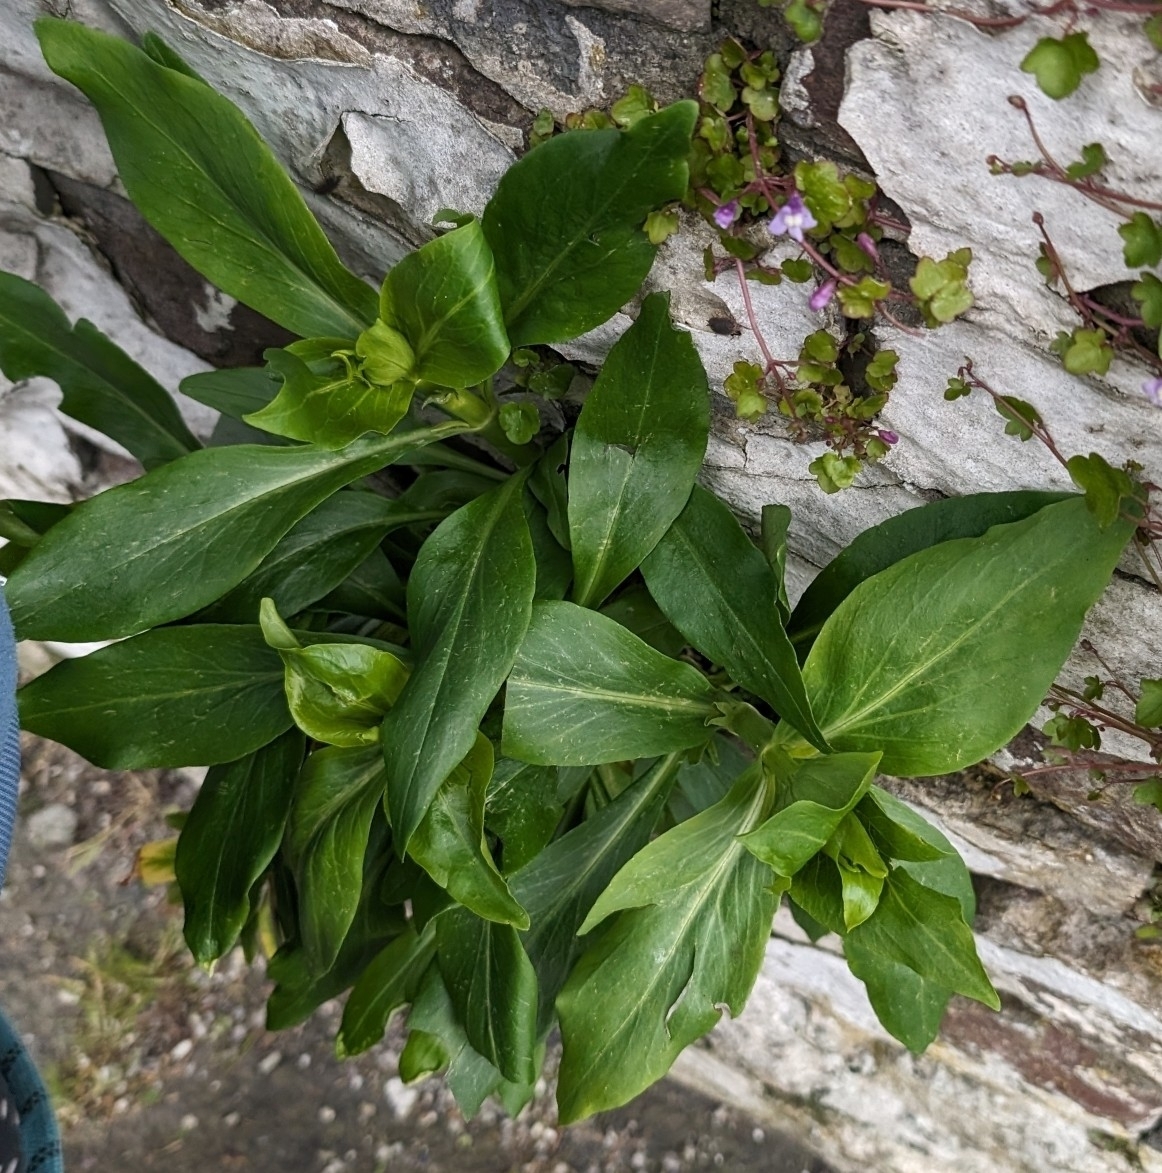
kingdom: Plantae
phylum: Tracheophyta
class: Magnoliopsida
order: Dipsacales
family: Caprifoliaceae
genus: Centranthus
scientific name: Centranthus ruber
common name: Red valerian
